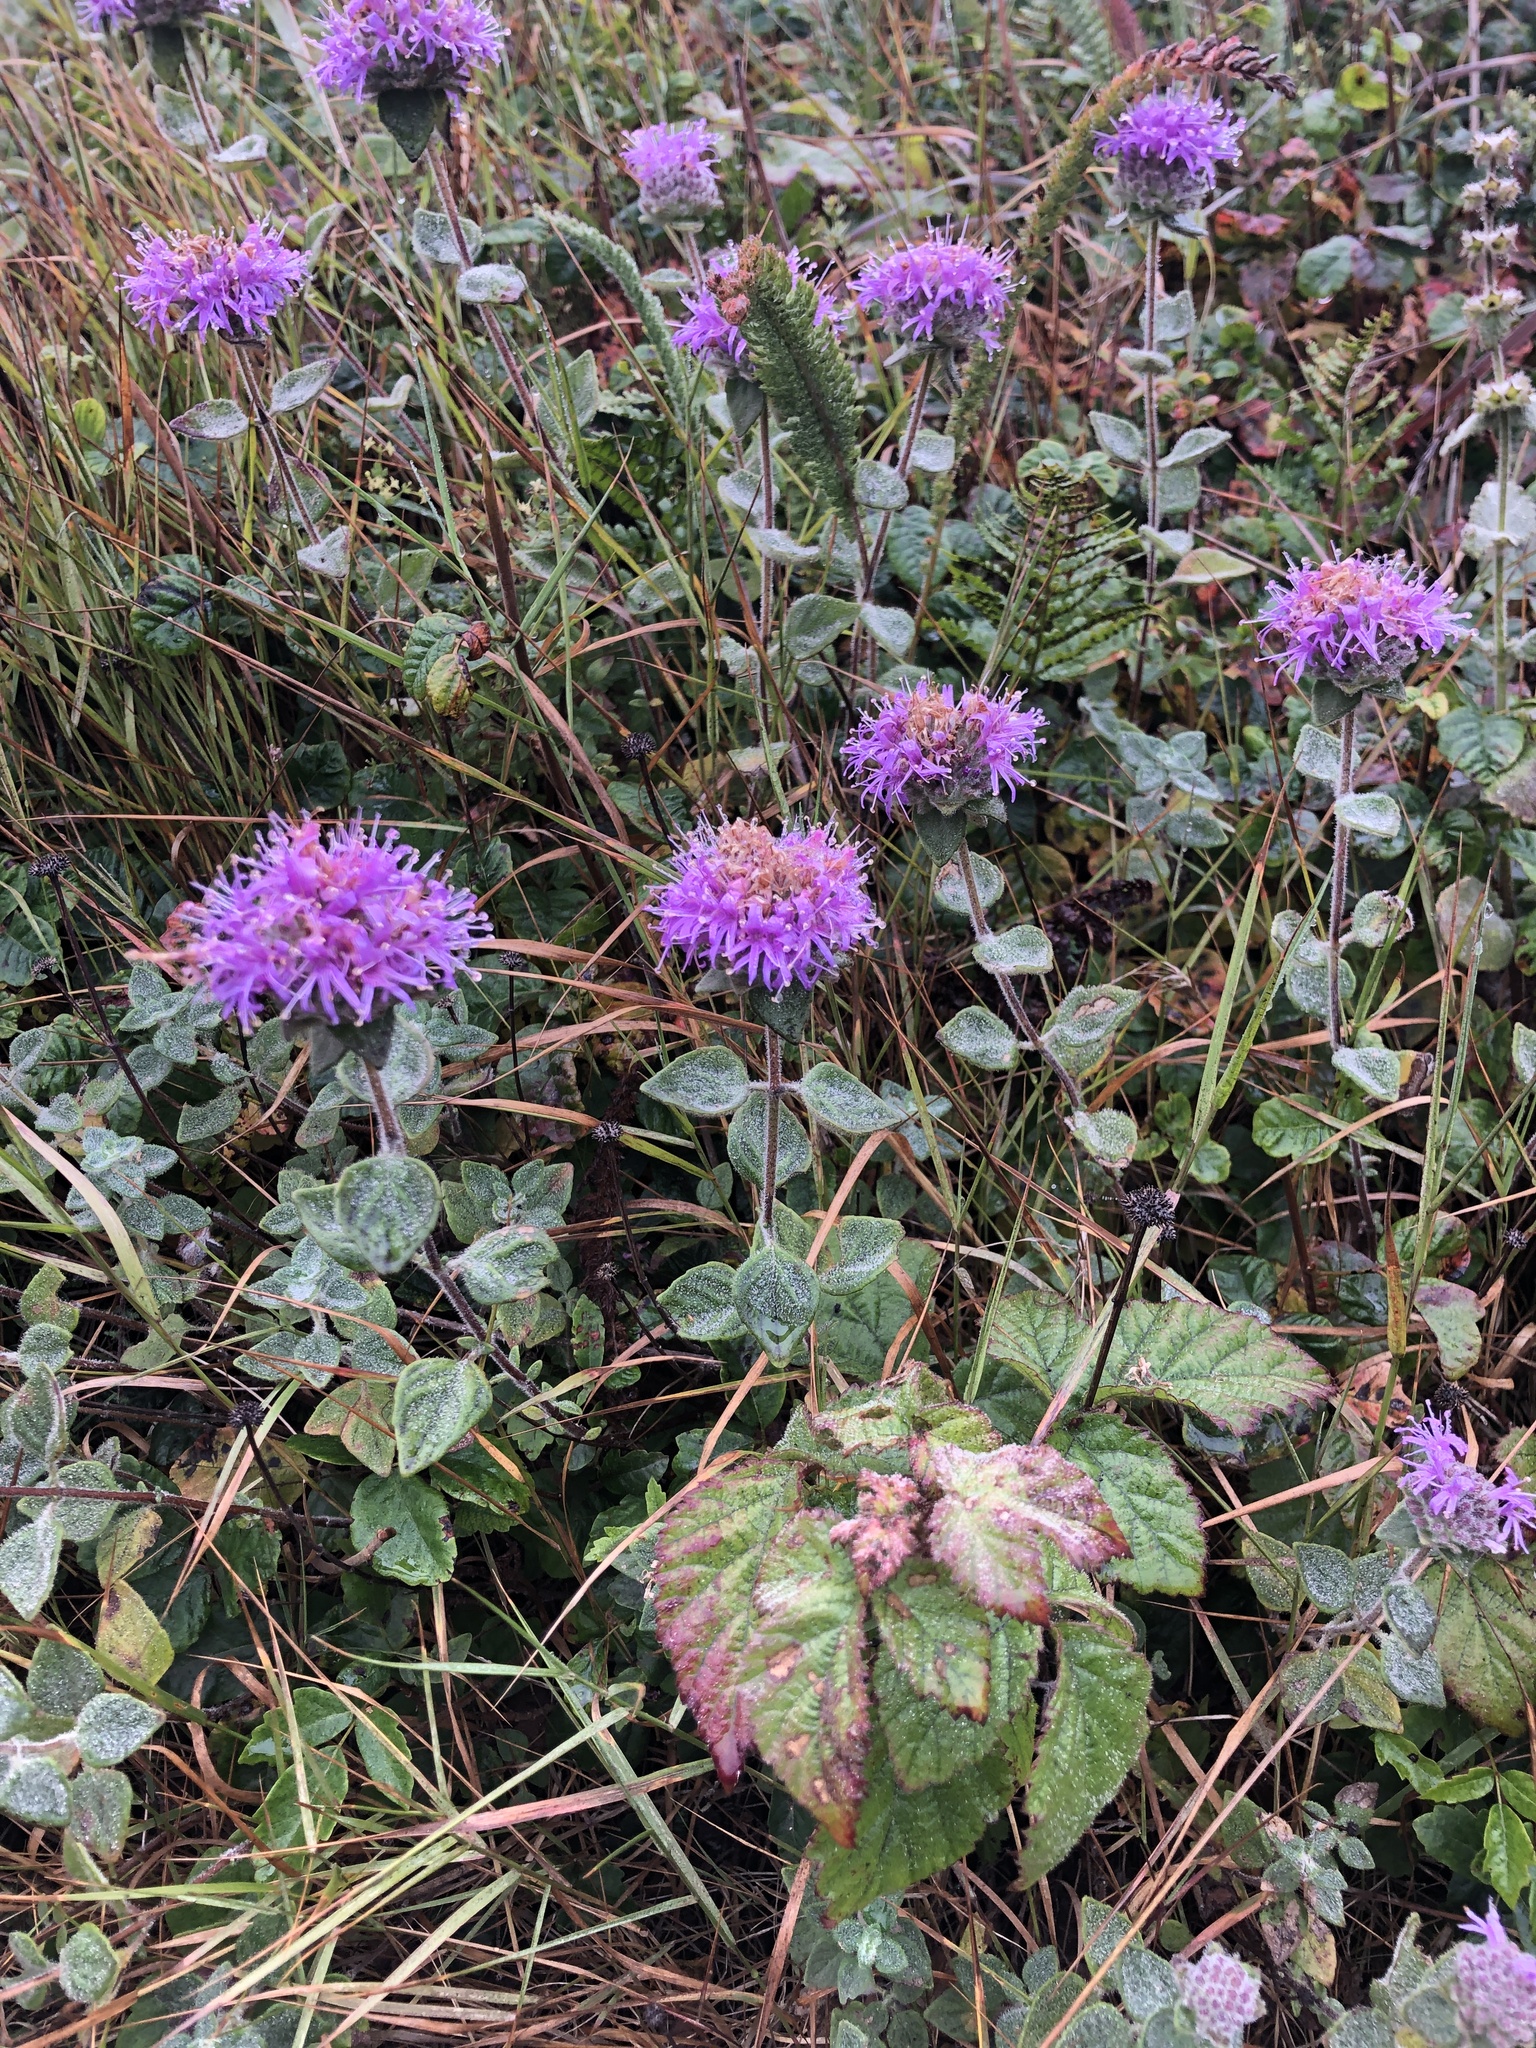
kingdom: Plantae
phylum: Tracheophyta
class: Magnoliopsida
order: Lamiales
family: Lamiaceae
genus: Monardella
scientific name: Monardella odoratissima
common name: Pacific monardella
